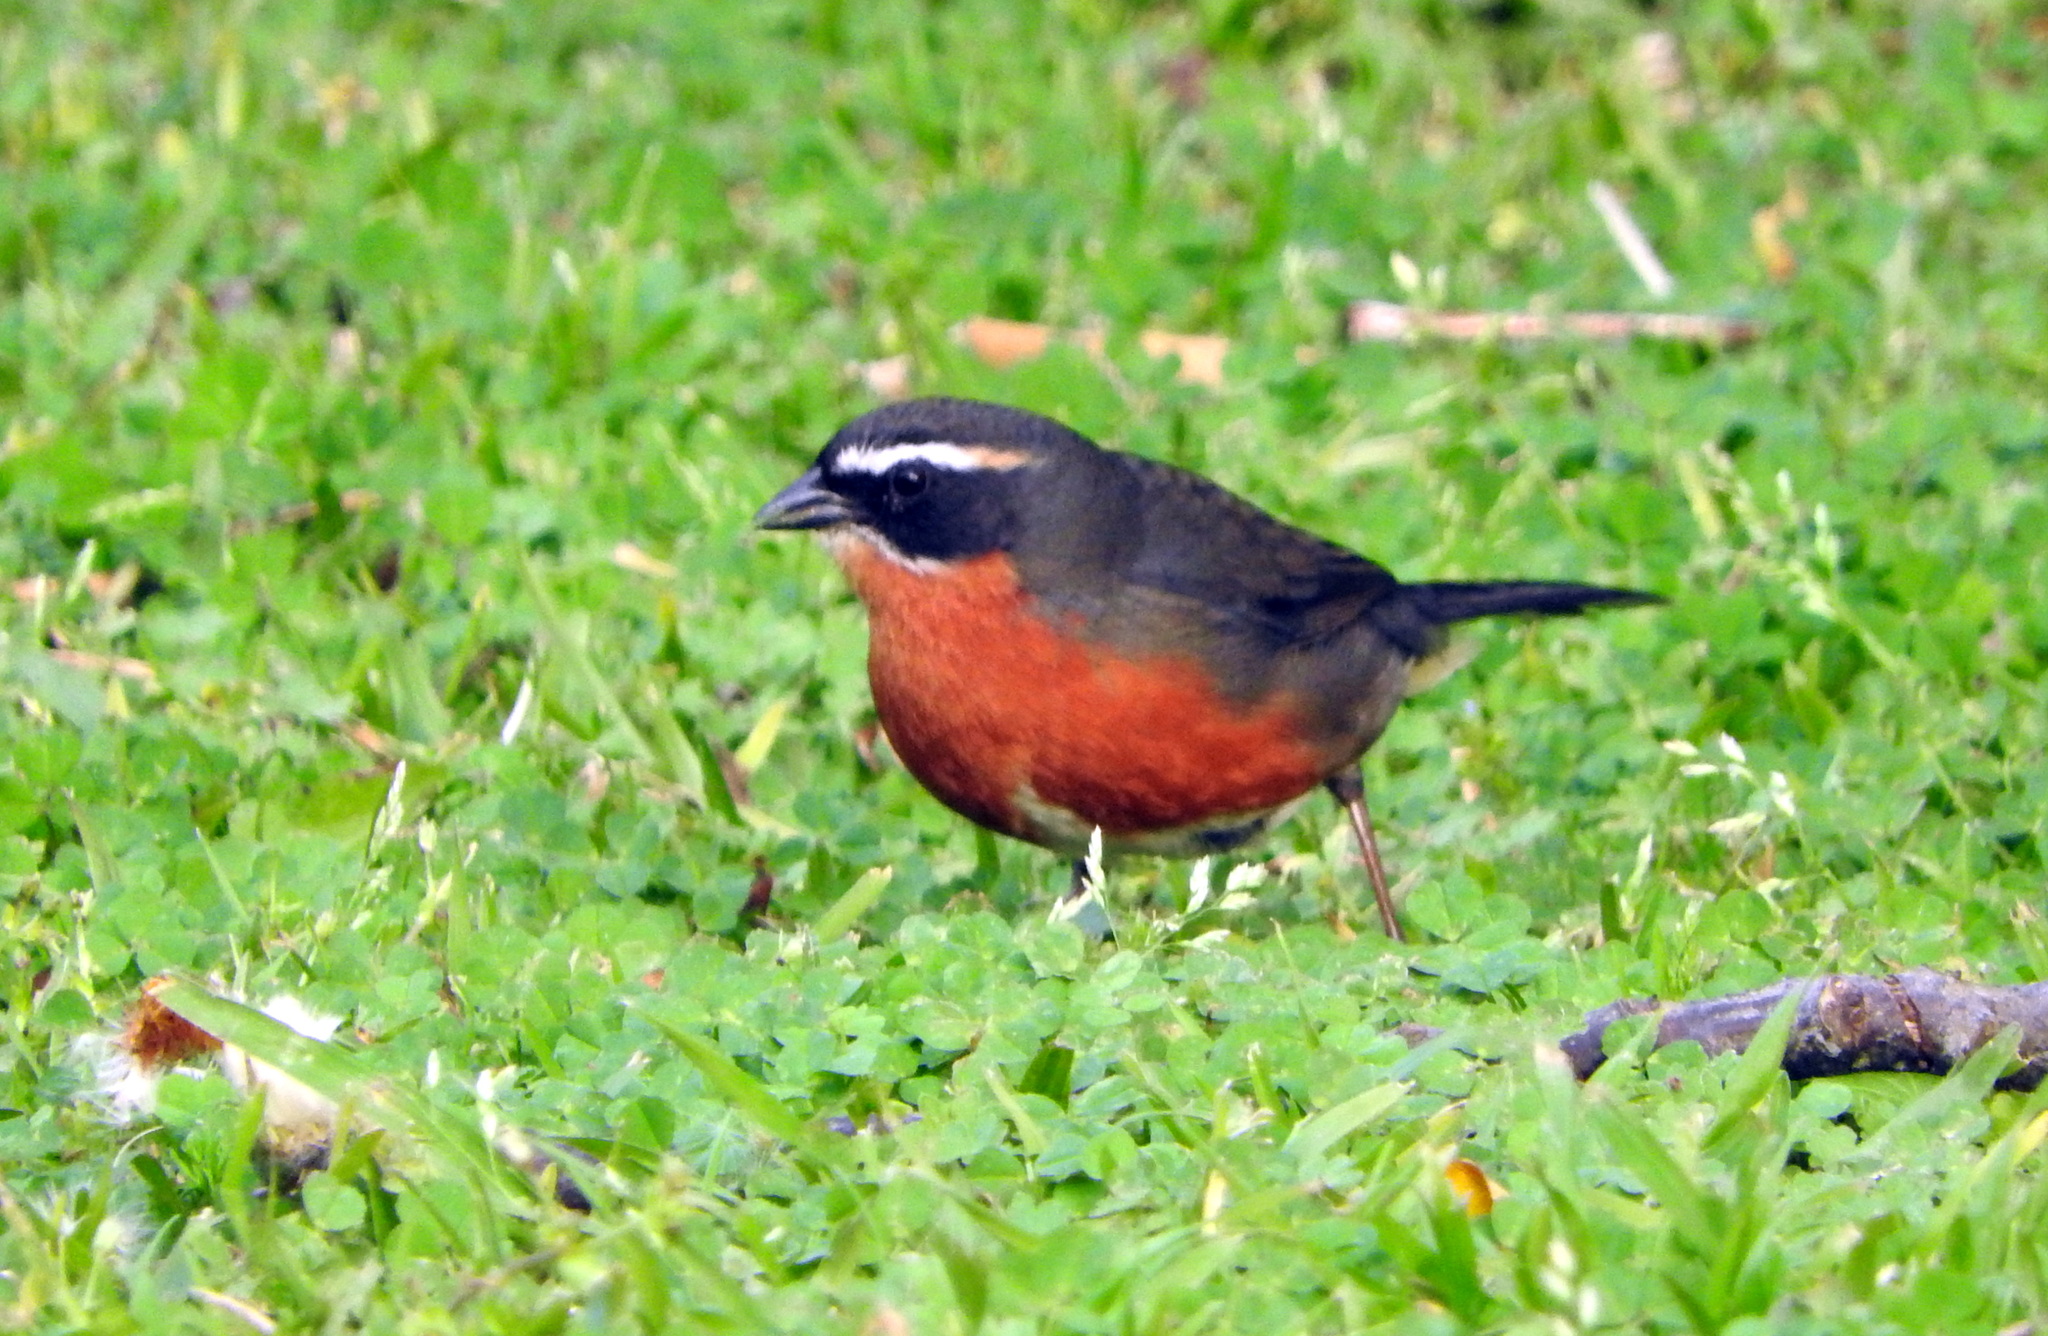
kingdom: Animalia
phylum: Chordata
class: Aves
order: Passeriformes
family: Thraupidae
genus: Poospiza
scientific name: Poospiza nigrorufa
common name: Black-and-rufous warbling finch
